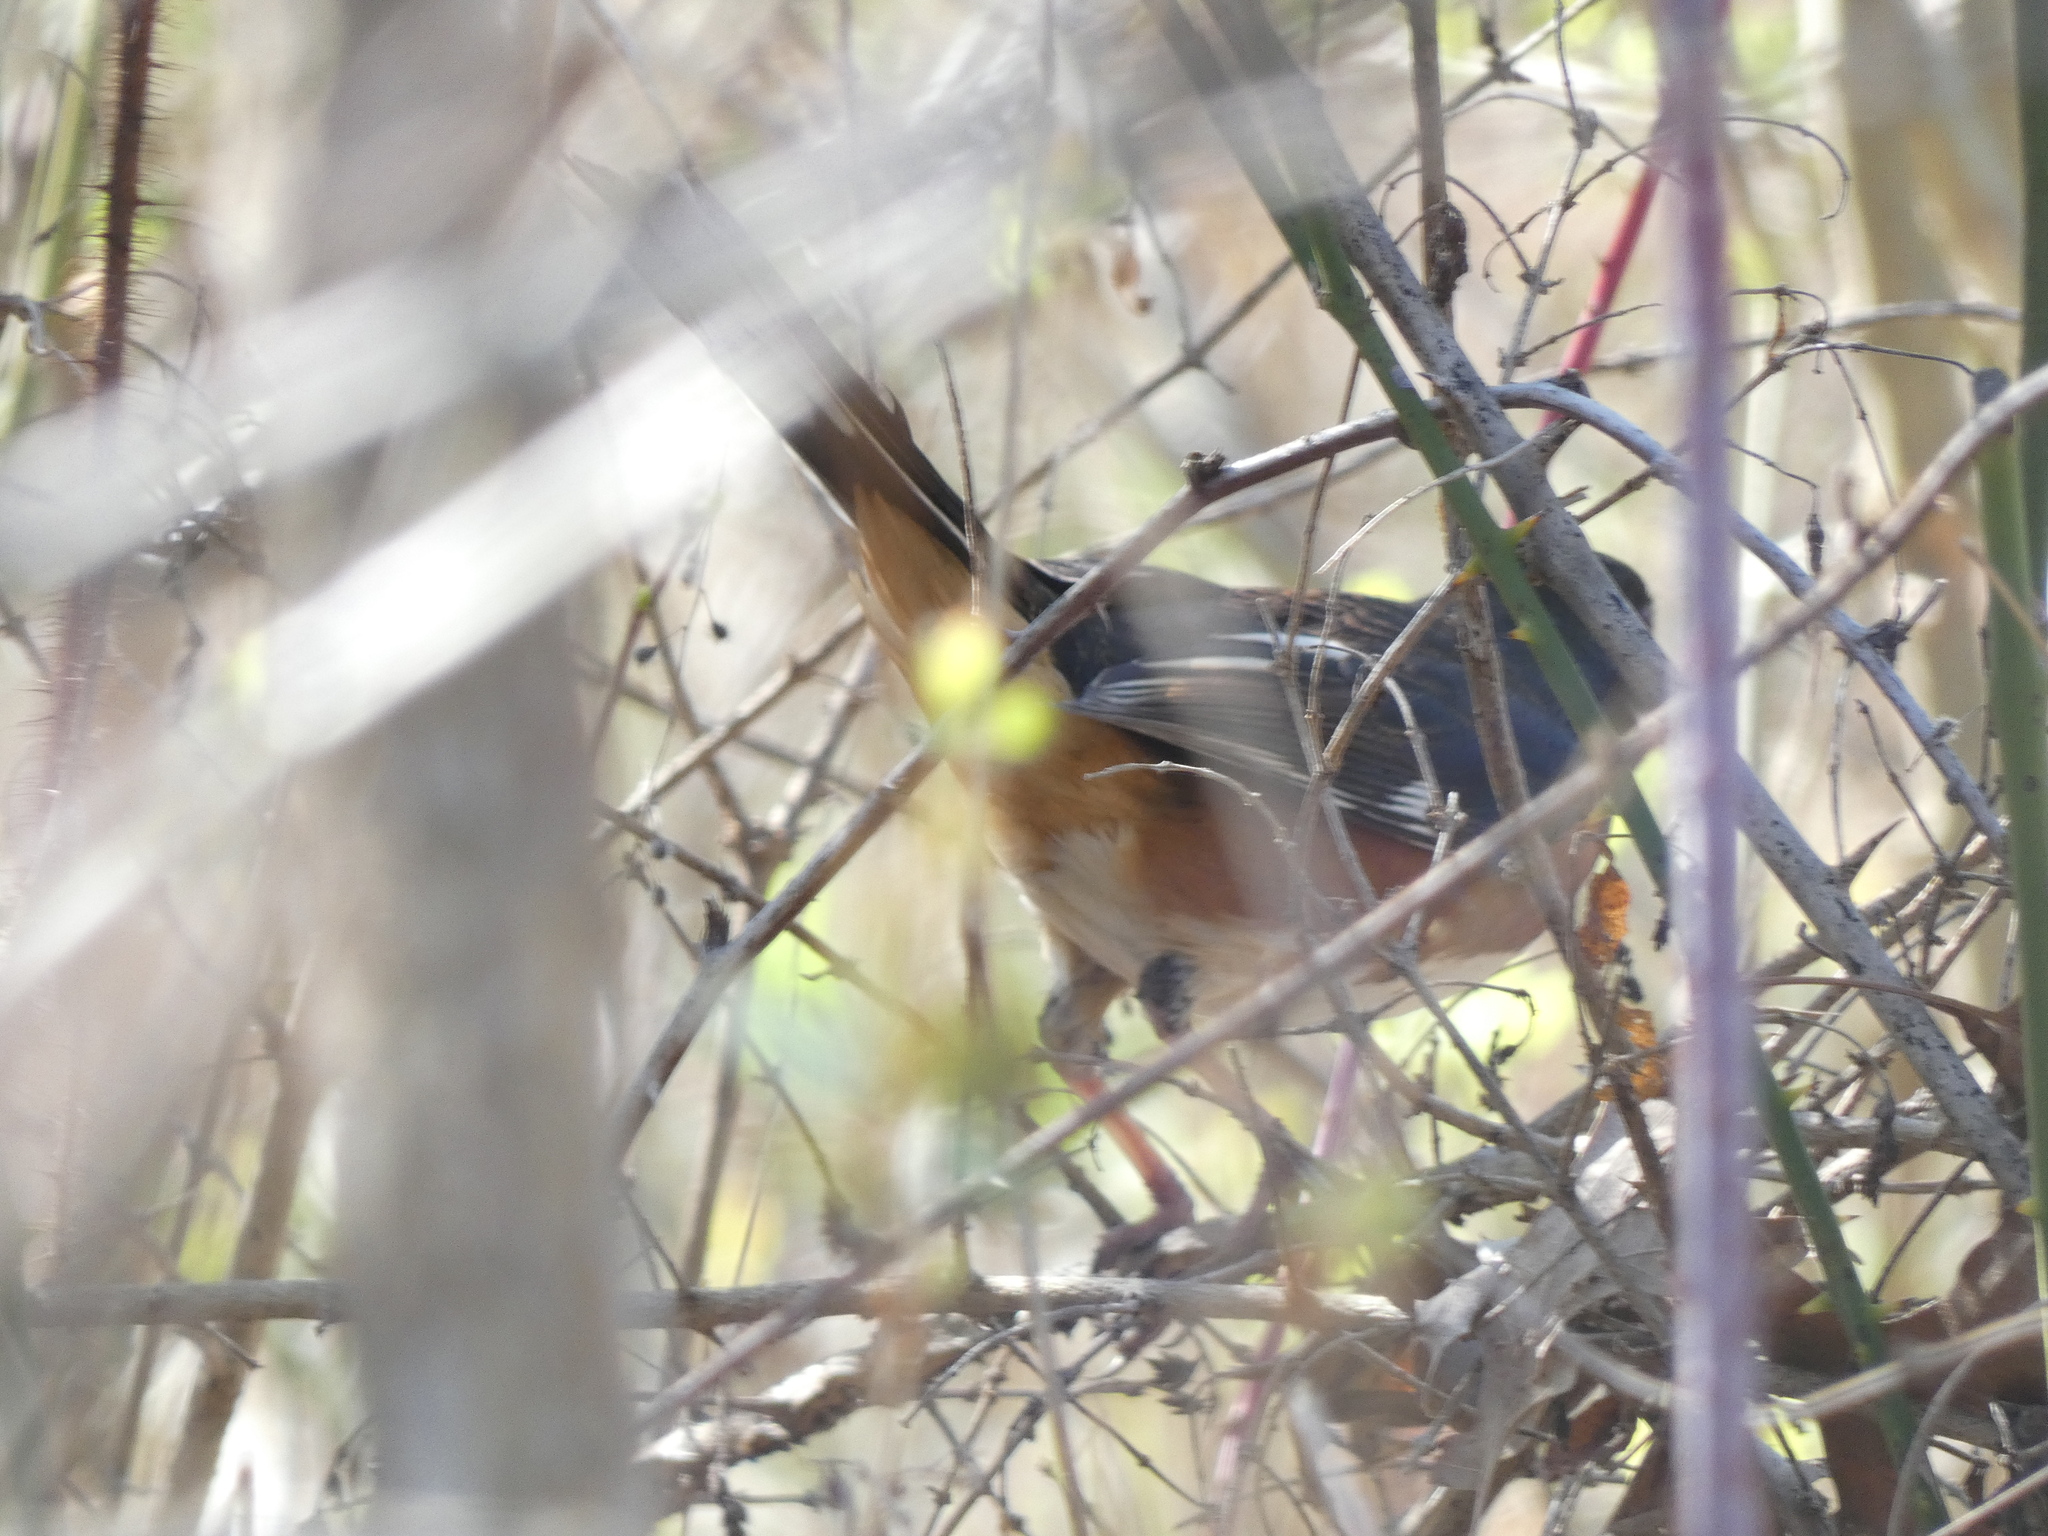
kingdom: Animalia
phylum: Chordata
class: Aves
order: Passeriformes
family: Passerellidae
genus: Pipilo
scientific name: Pipilo erythrophthalmus
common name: Eastern towhee
